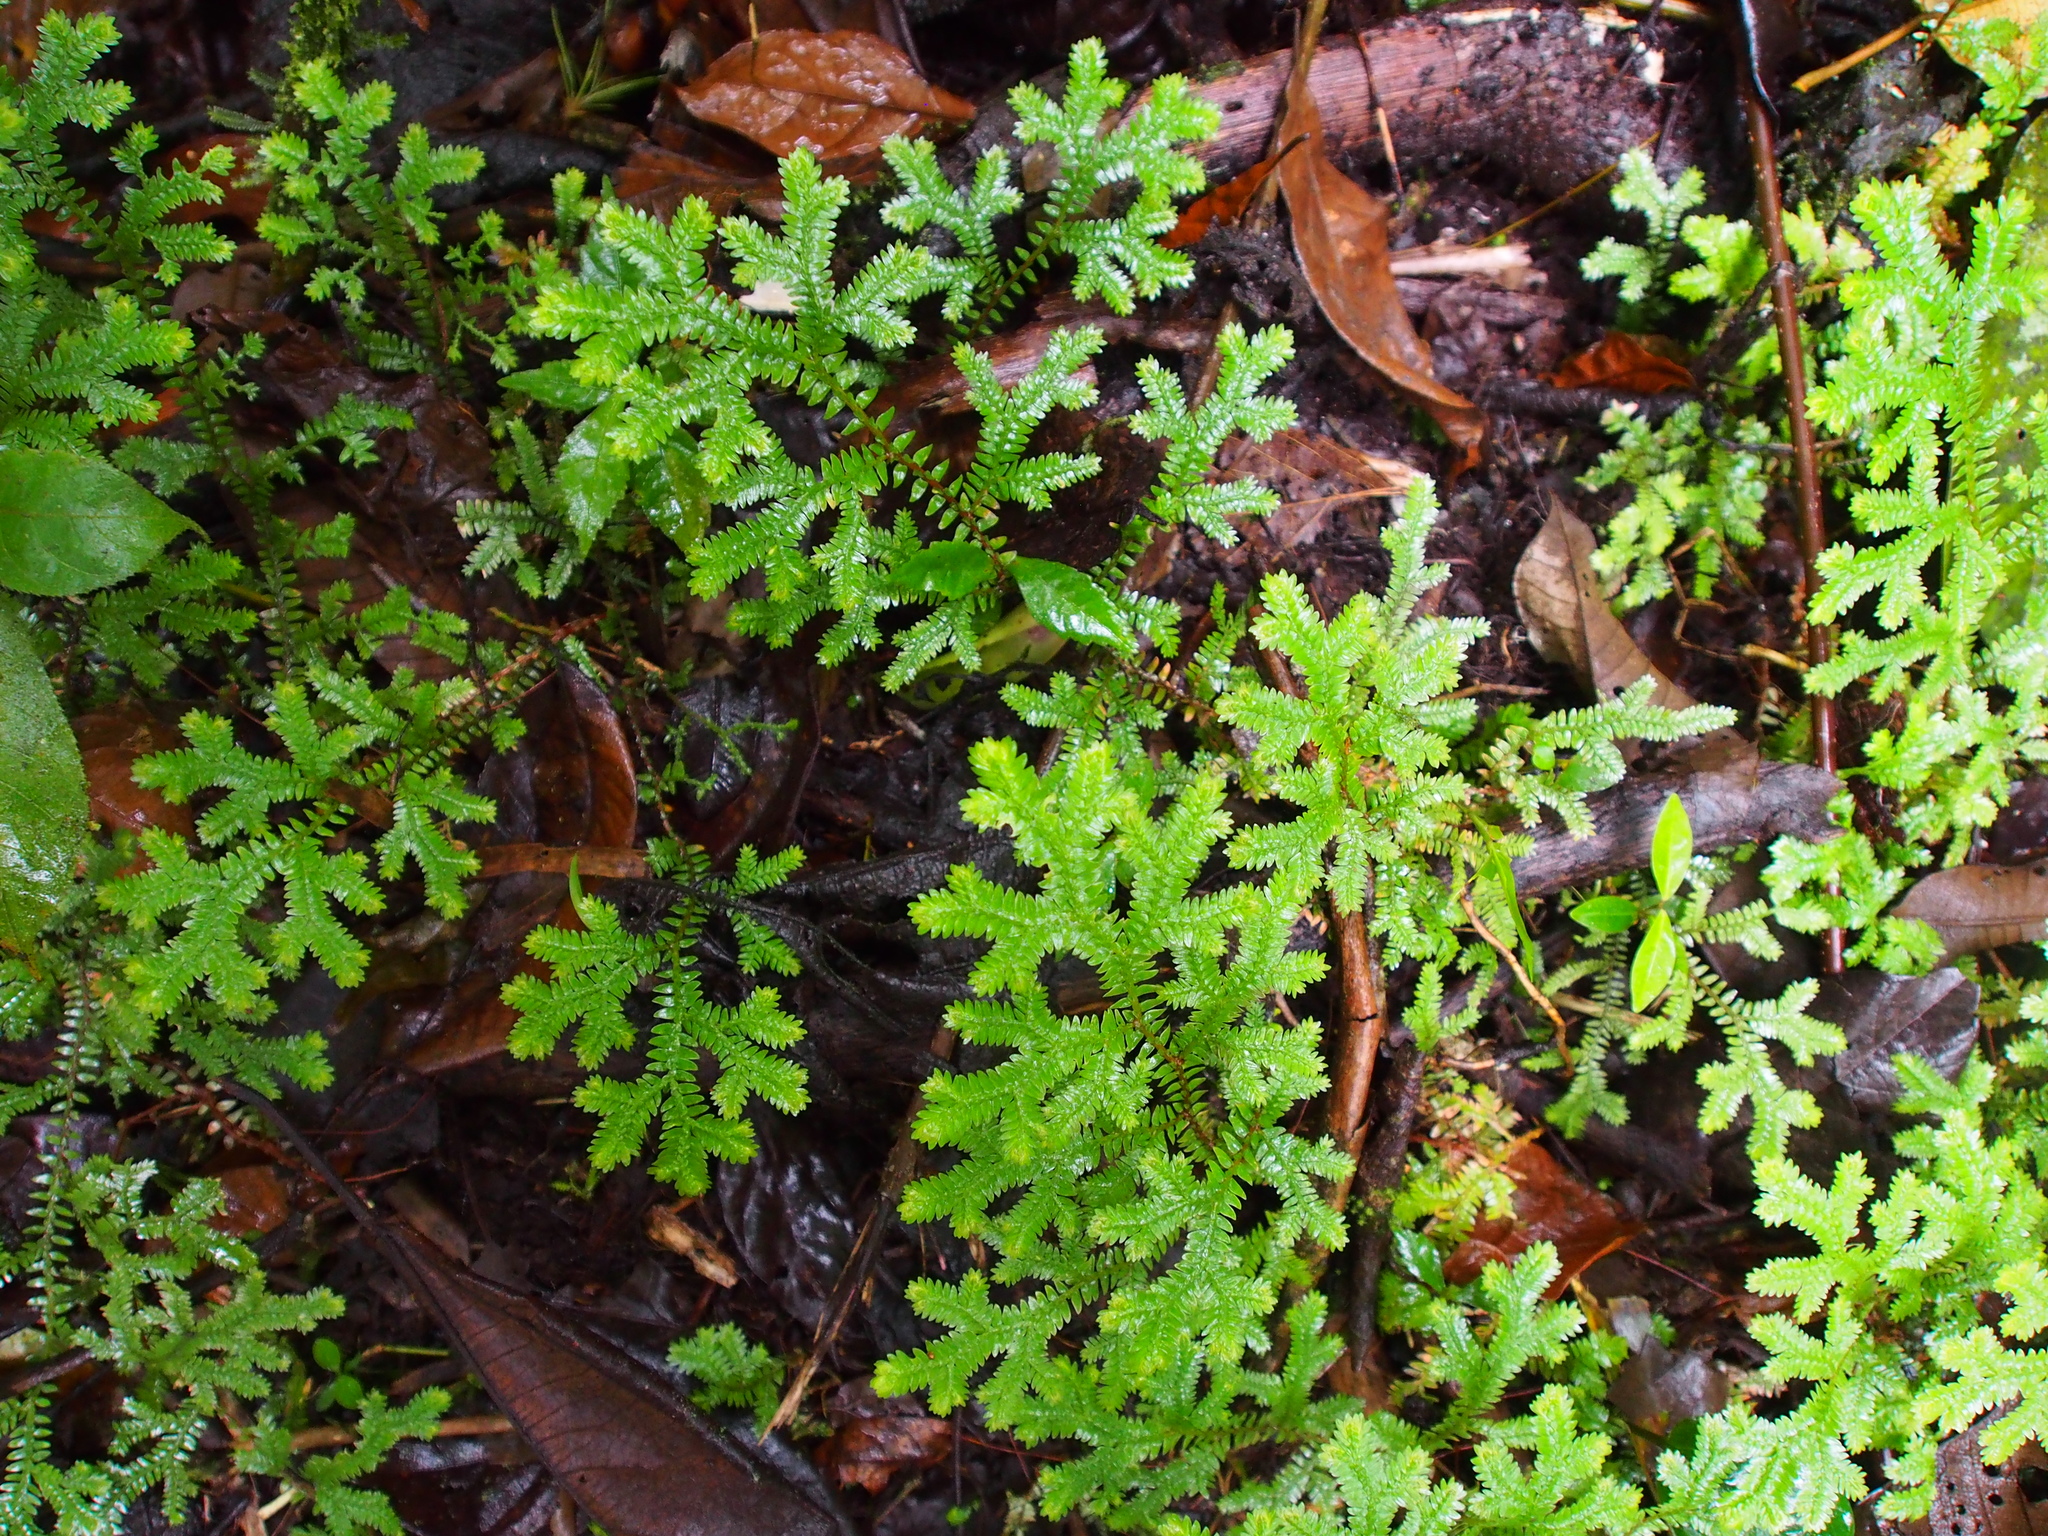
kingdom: Plantae
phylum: Tracheophyta
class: Lycopodiopsida
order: Selaginellales
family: Selaginellaceae
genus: Selaginella
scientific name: Selaginella eurynota
